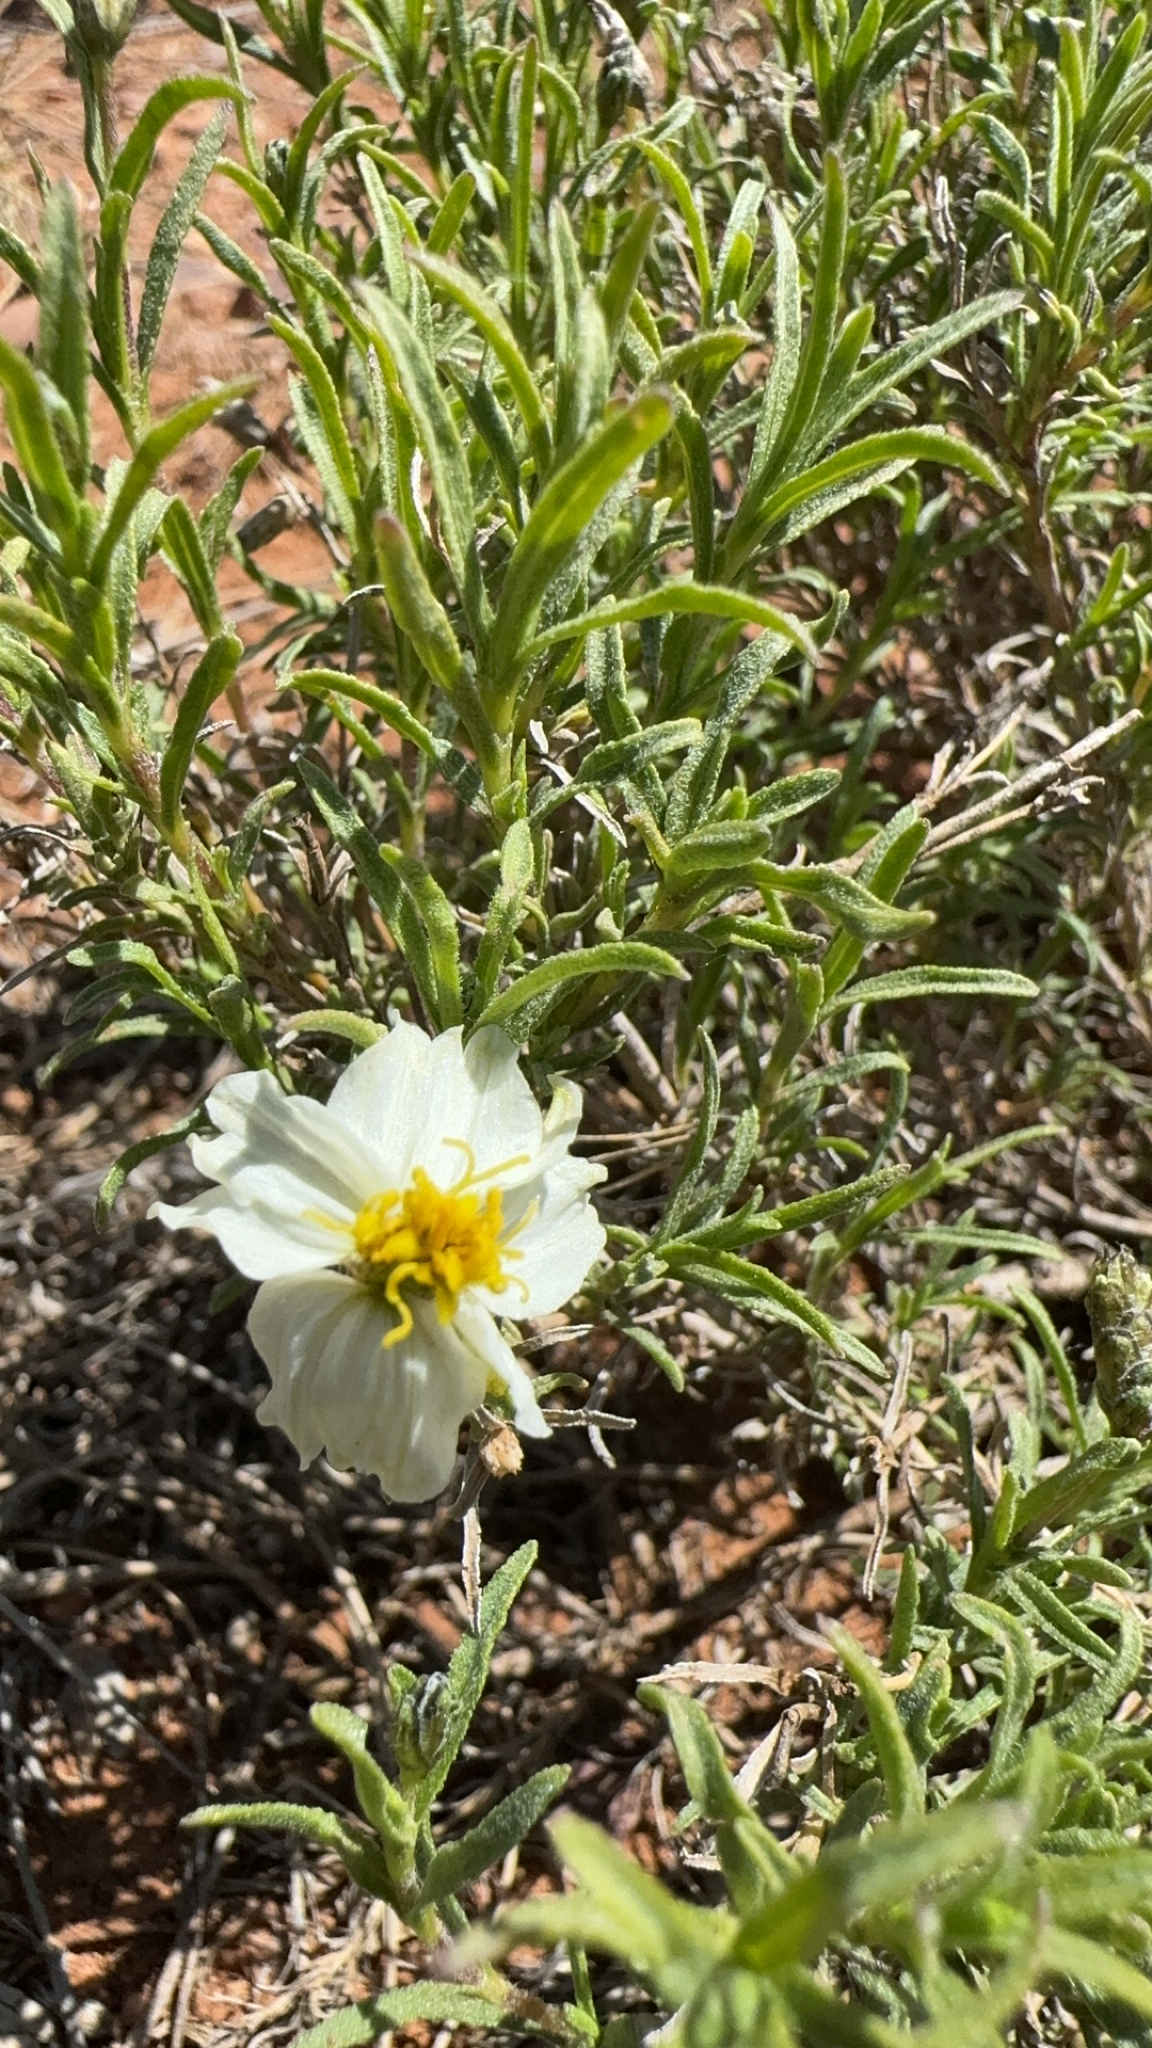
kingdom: Plantae
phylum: Tracheophyta
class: Magnoliopsida
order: Asterales
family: Asteraceae
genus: Zinnia
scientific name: Zinnia acerosa
